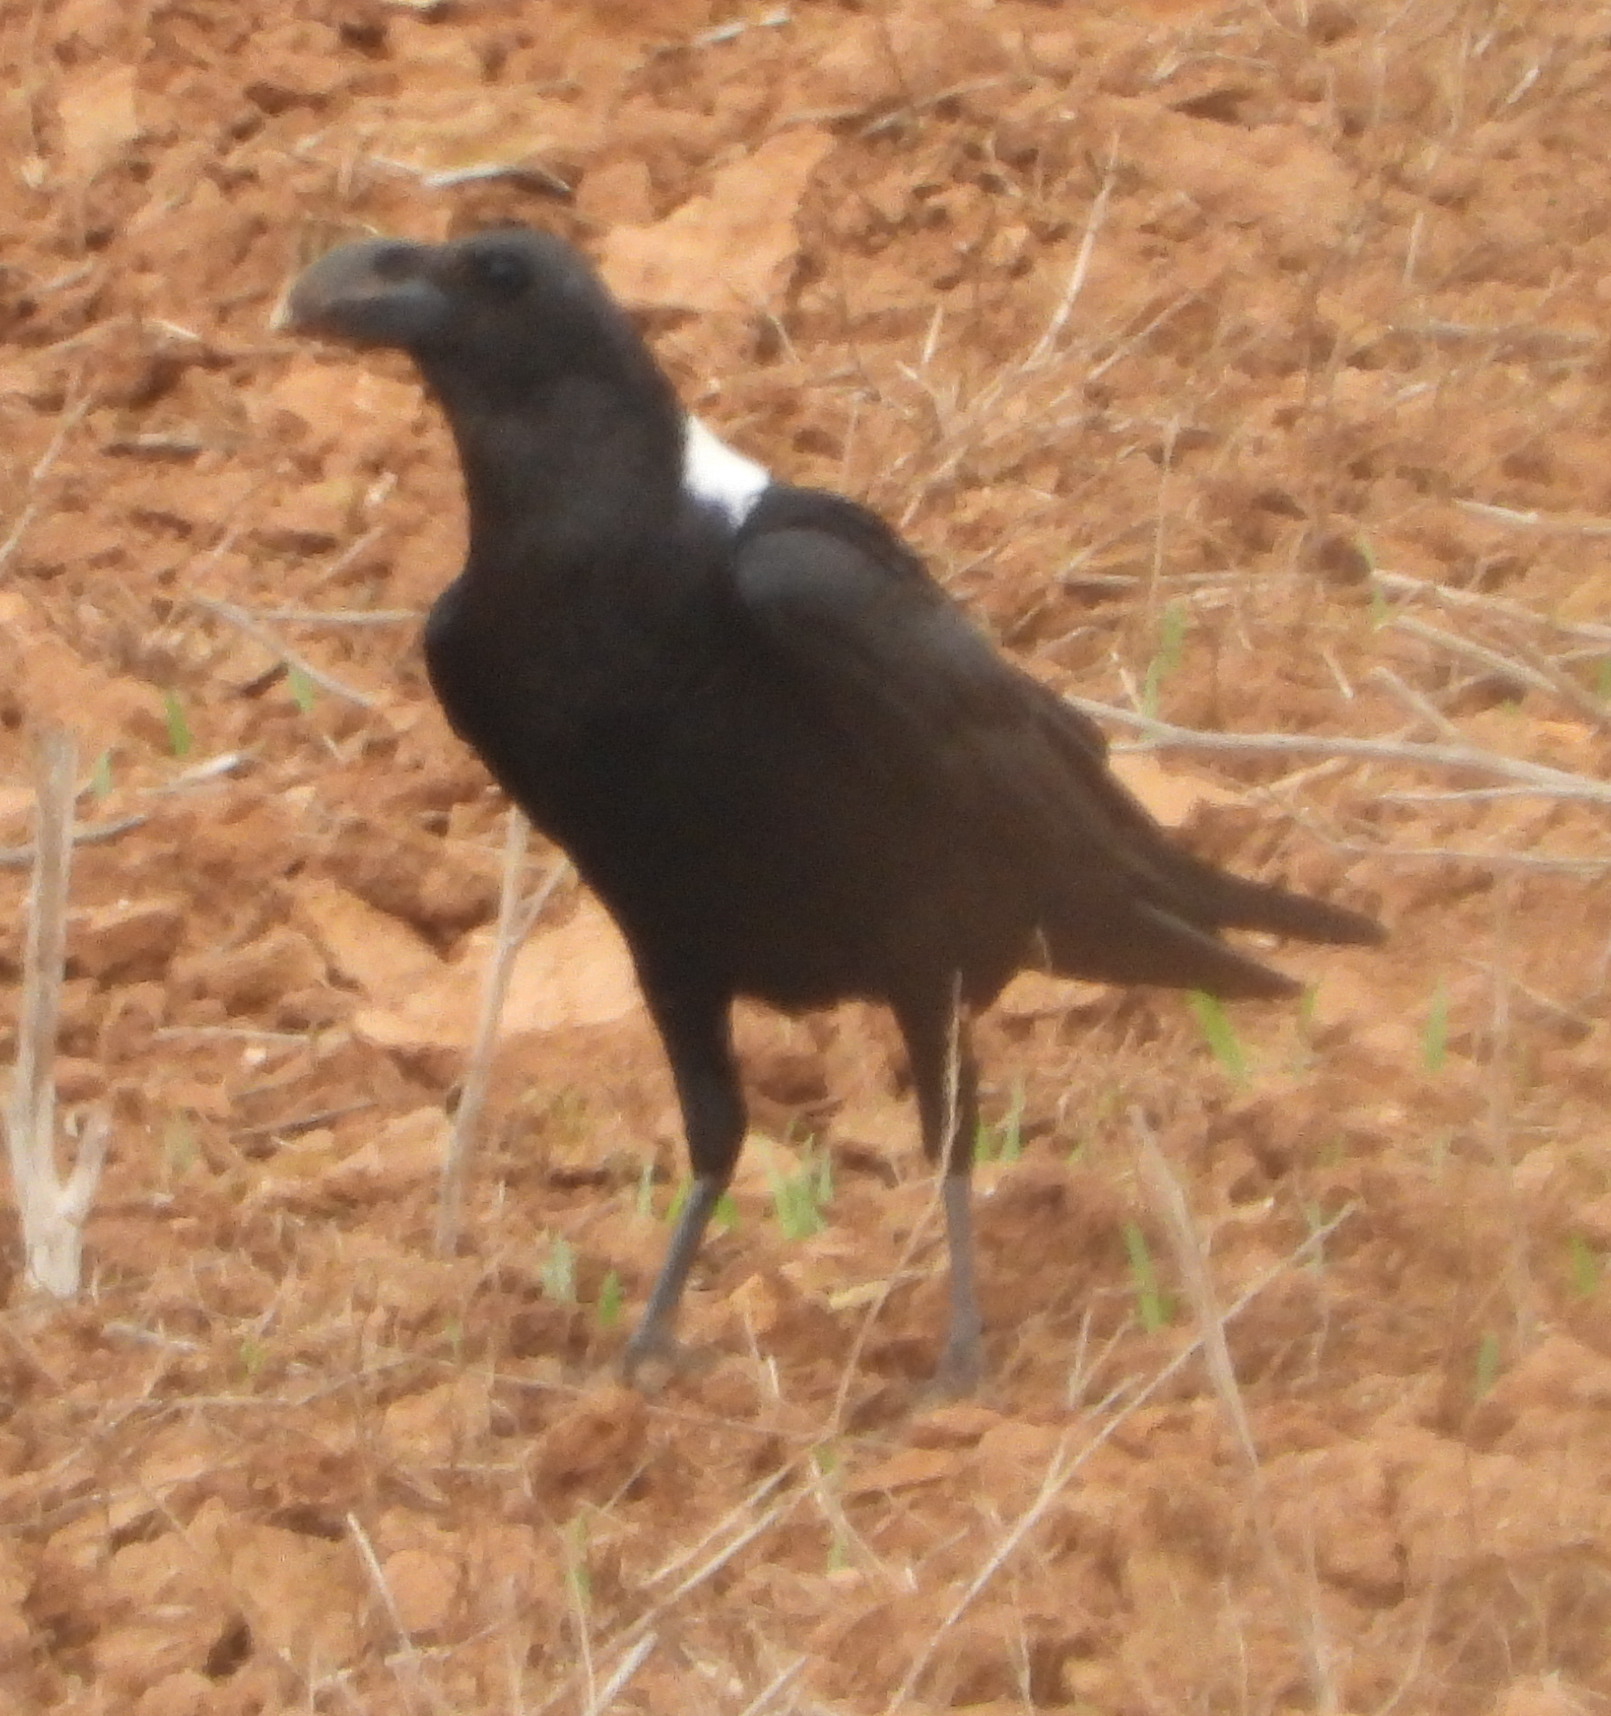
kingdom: Animalia
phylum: Chordata
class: Aves
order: Passeriformes
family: Corvidae
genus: Corvus
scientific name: Corvus albicollis
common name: White-necked raven
